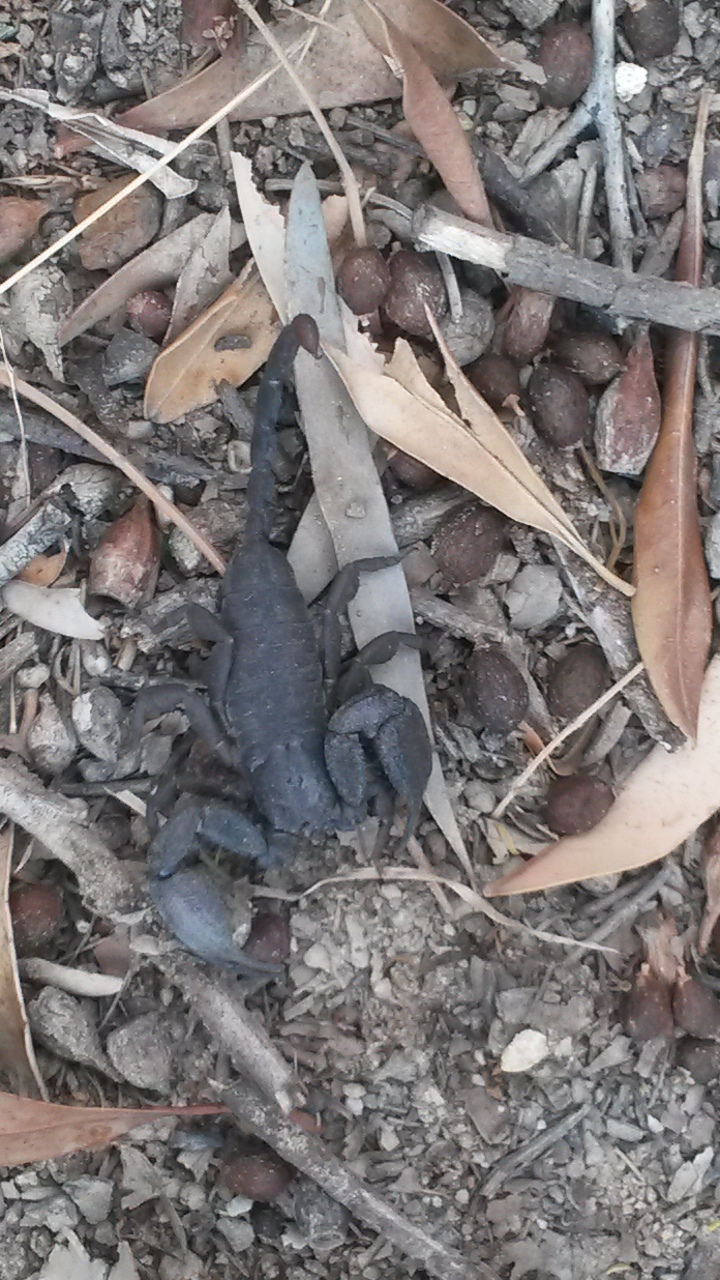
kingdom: Animalia
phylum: Arthropoda
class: Arachnida
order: Scorpiones
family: Hormuridae
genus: Opisthacanthus
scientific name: Opisthacanthus capensis
